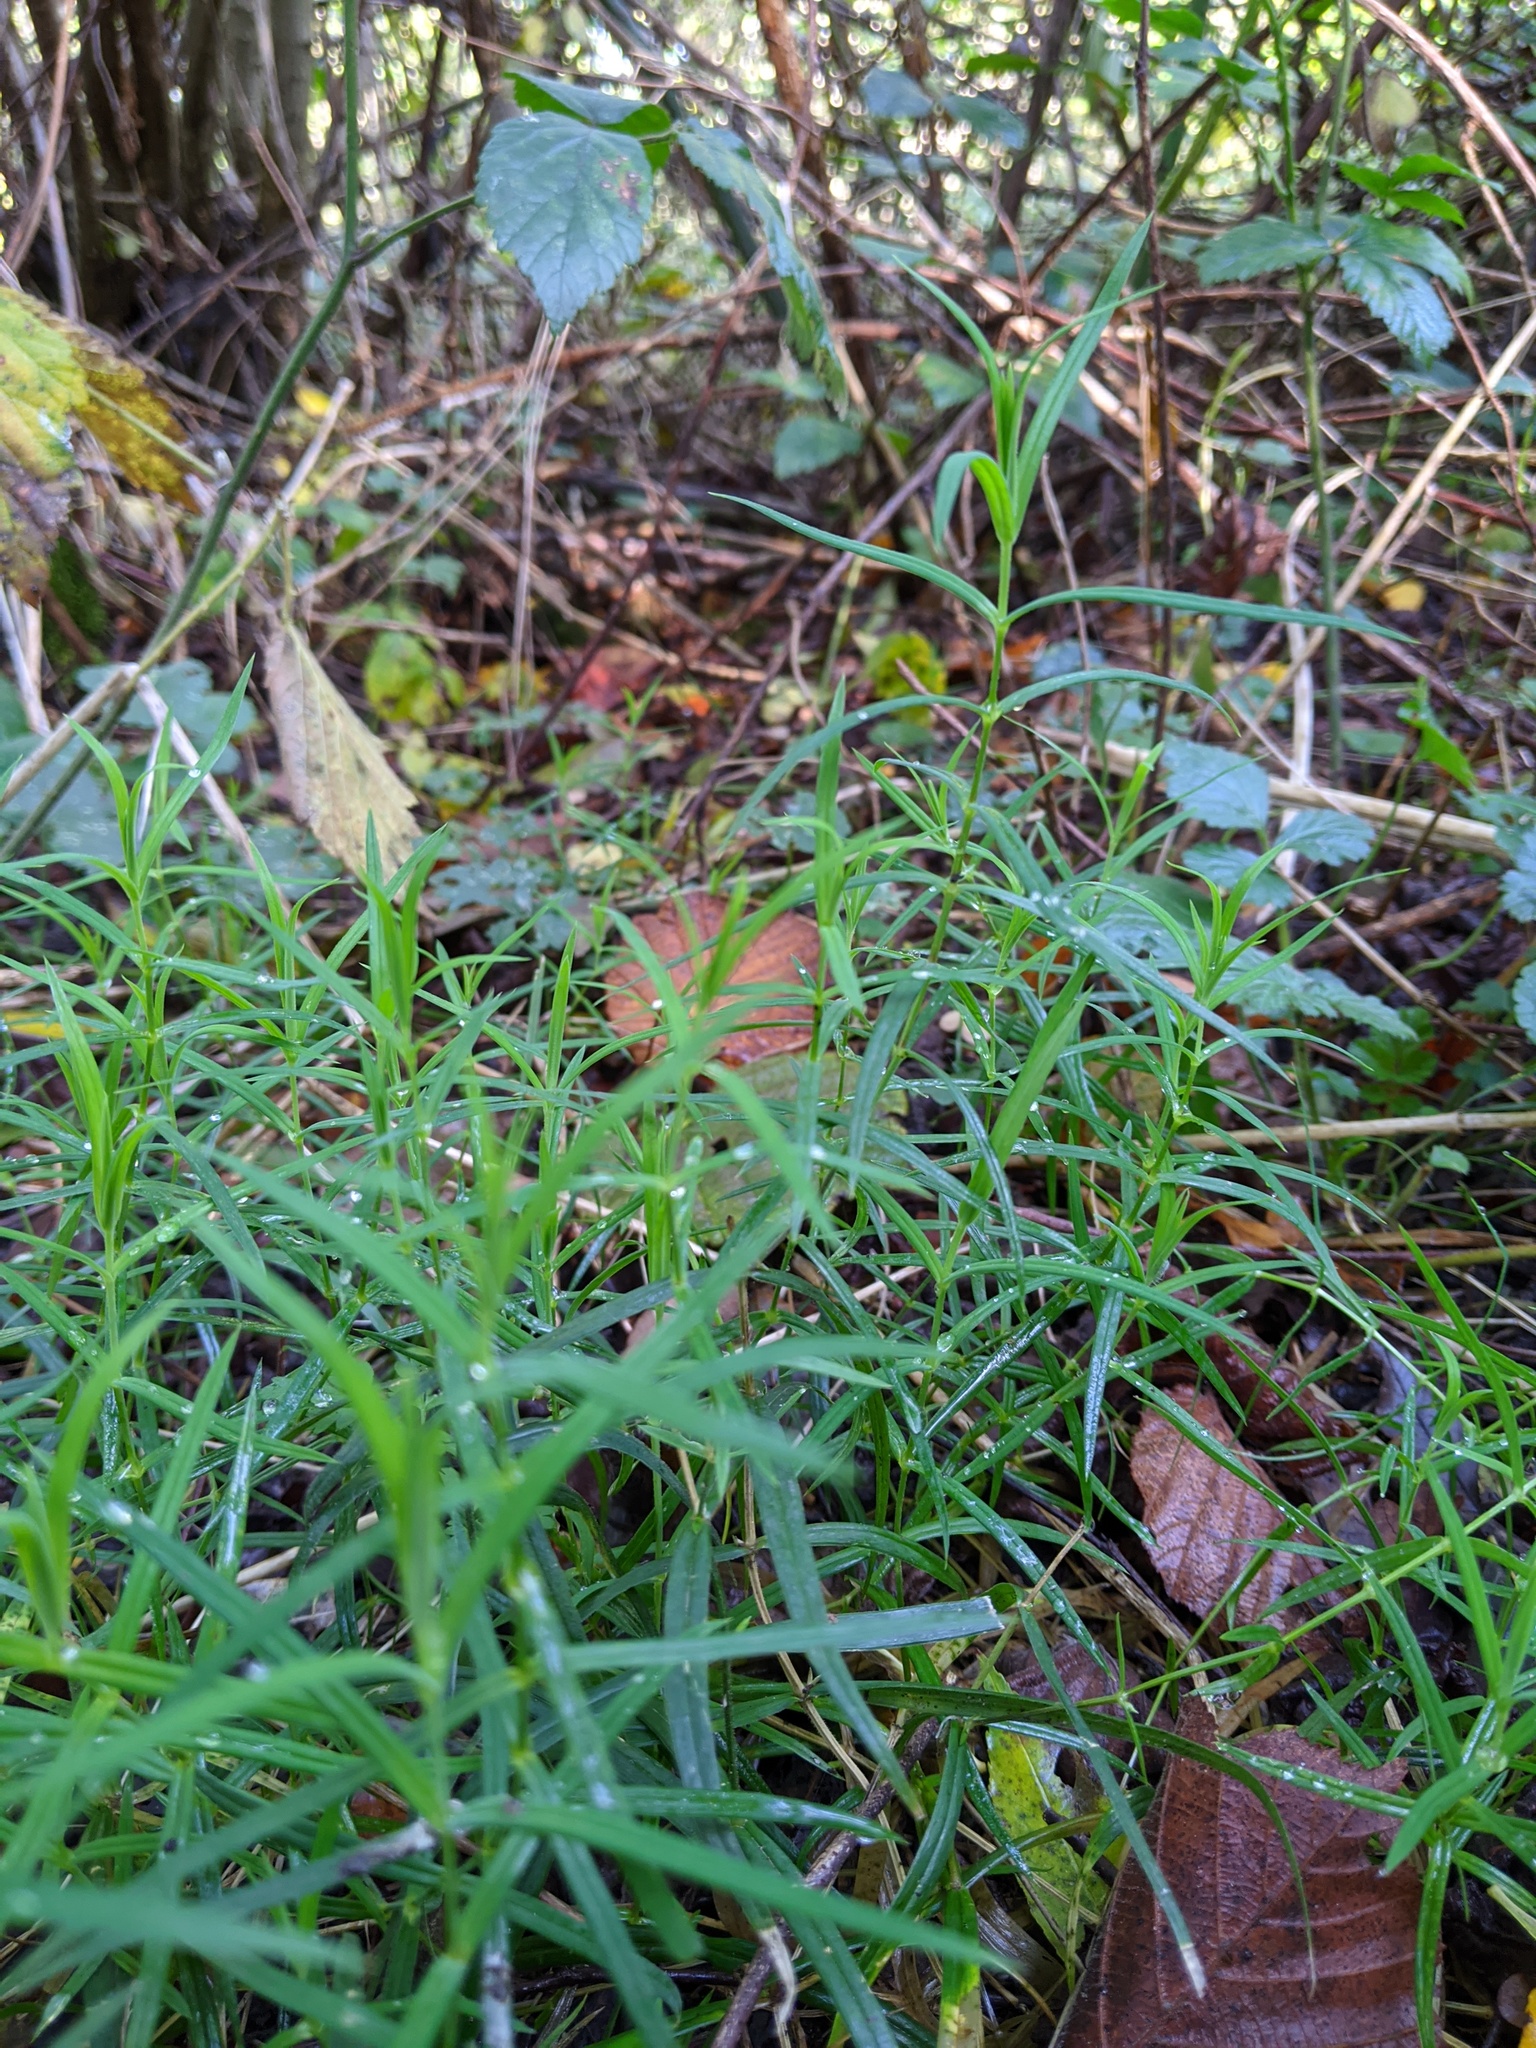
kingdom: Plantae
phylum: Tracheophyta
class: Magnoliopsida
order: Caryophyllales
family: Caryophyllaceae
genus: Rabelera
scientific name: Rabelera holostea
